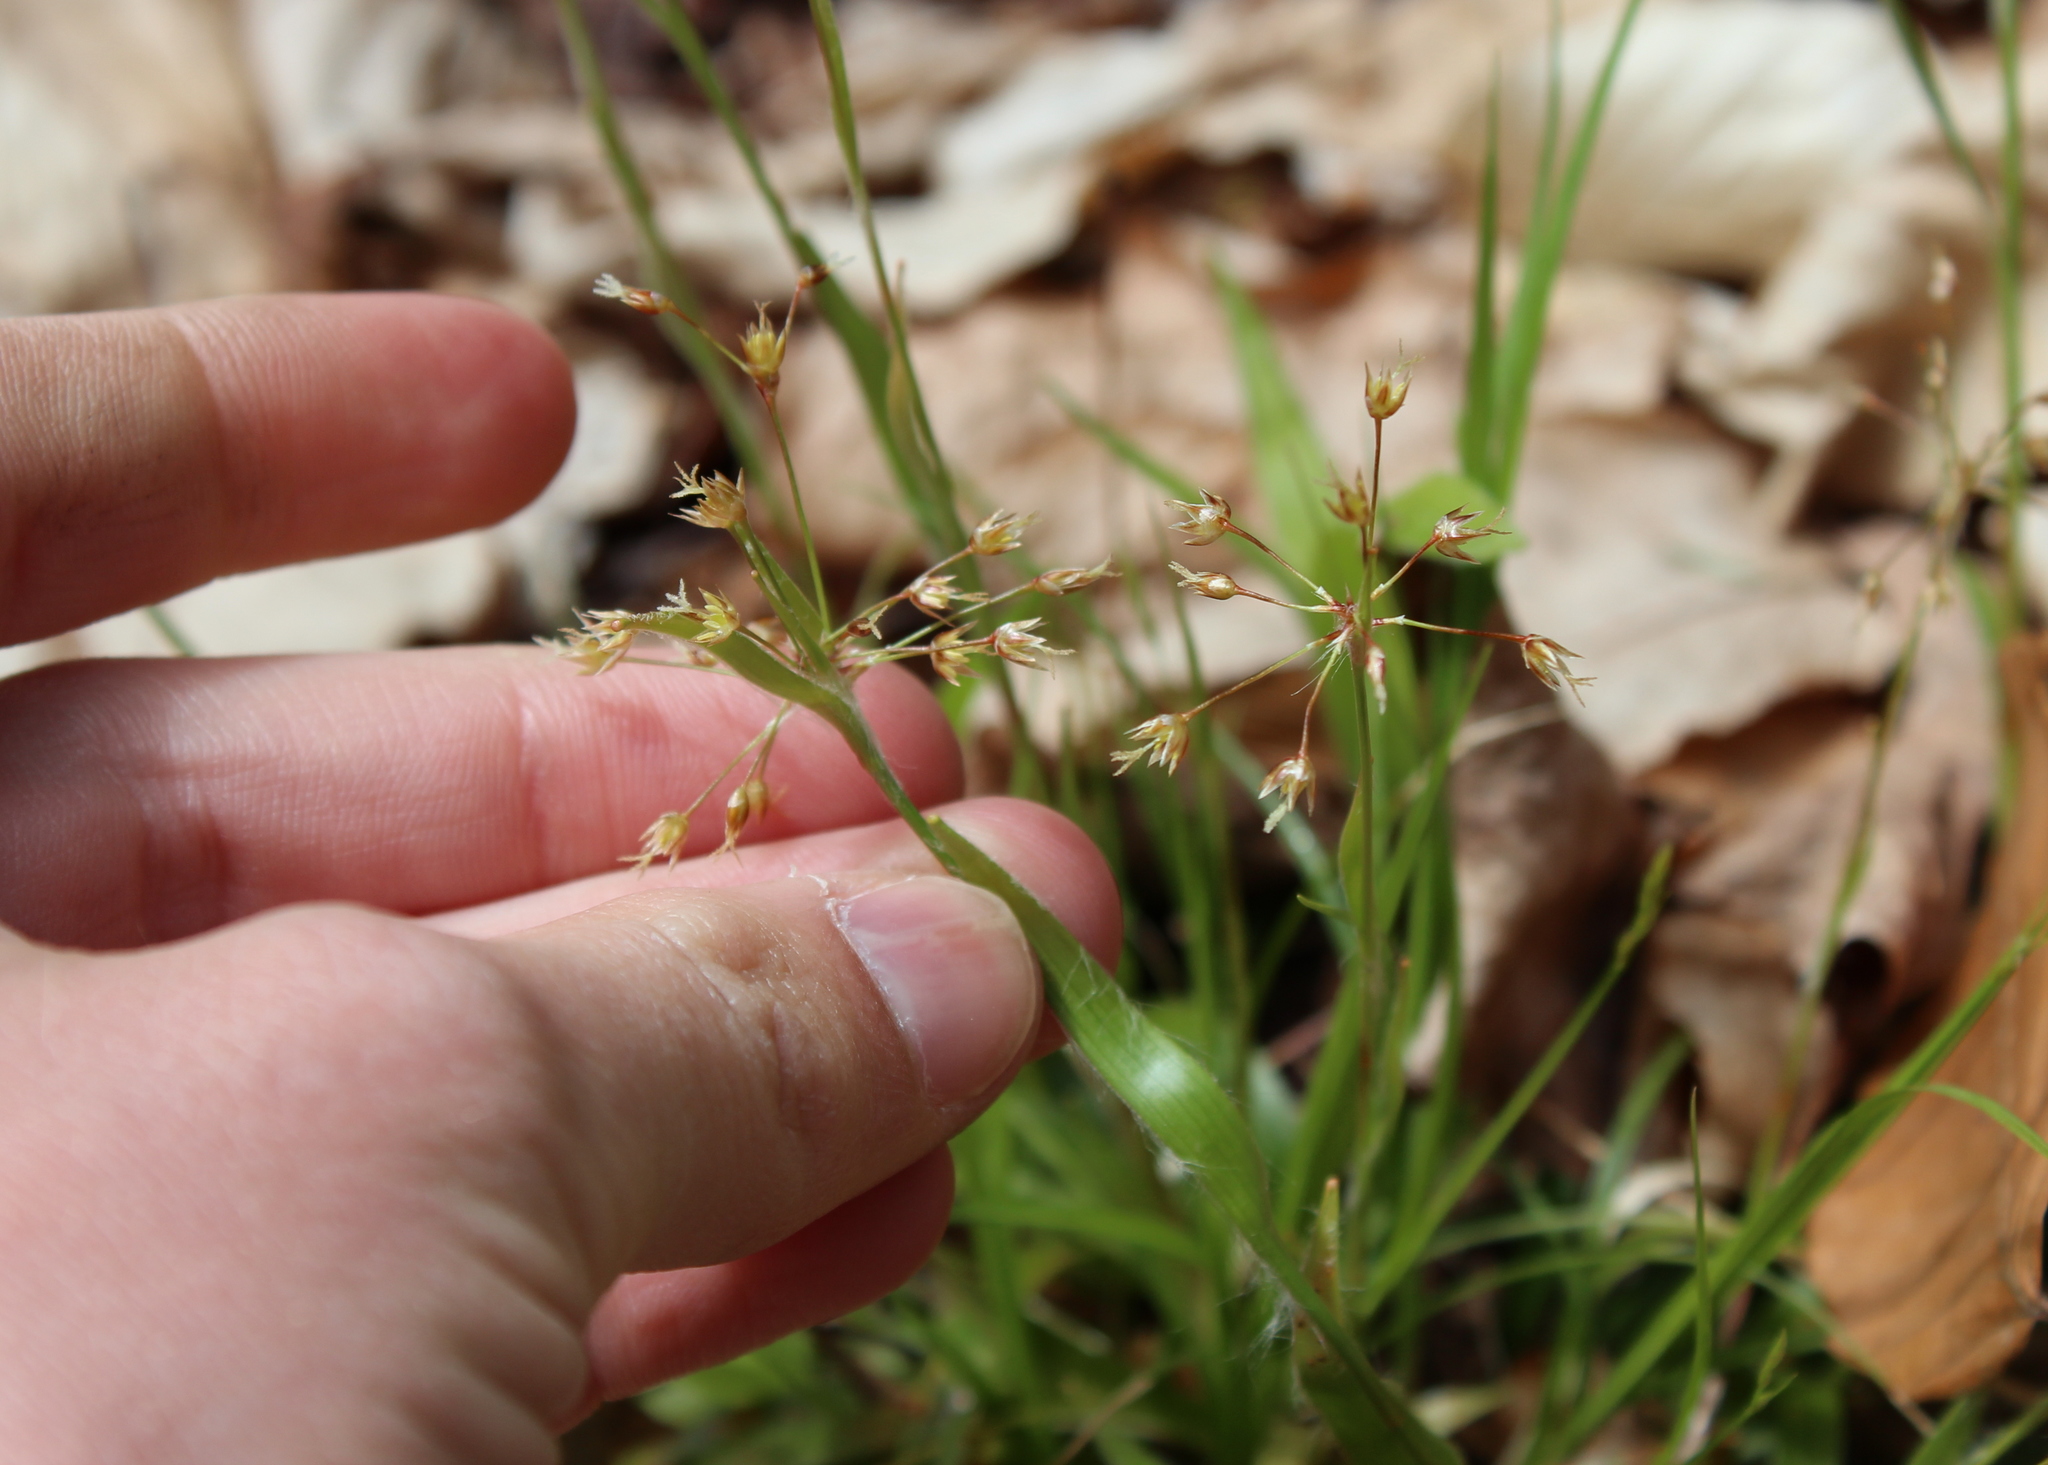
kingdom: Plantae
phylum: Tracheophyta
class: Liliopsida
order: Poales
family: Juncaceae
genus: Luzula
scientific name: Luzula acuminata
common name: Hairy woodrush
